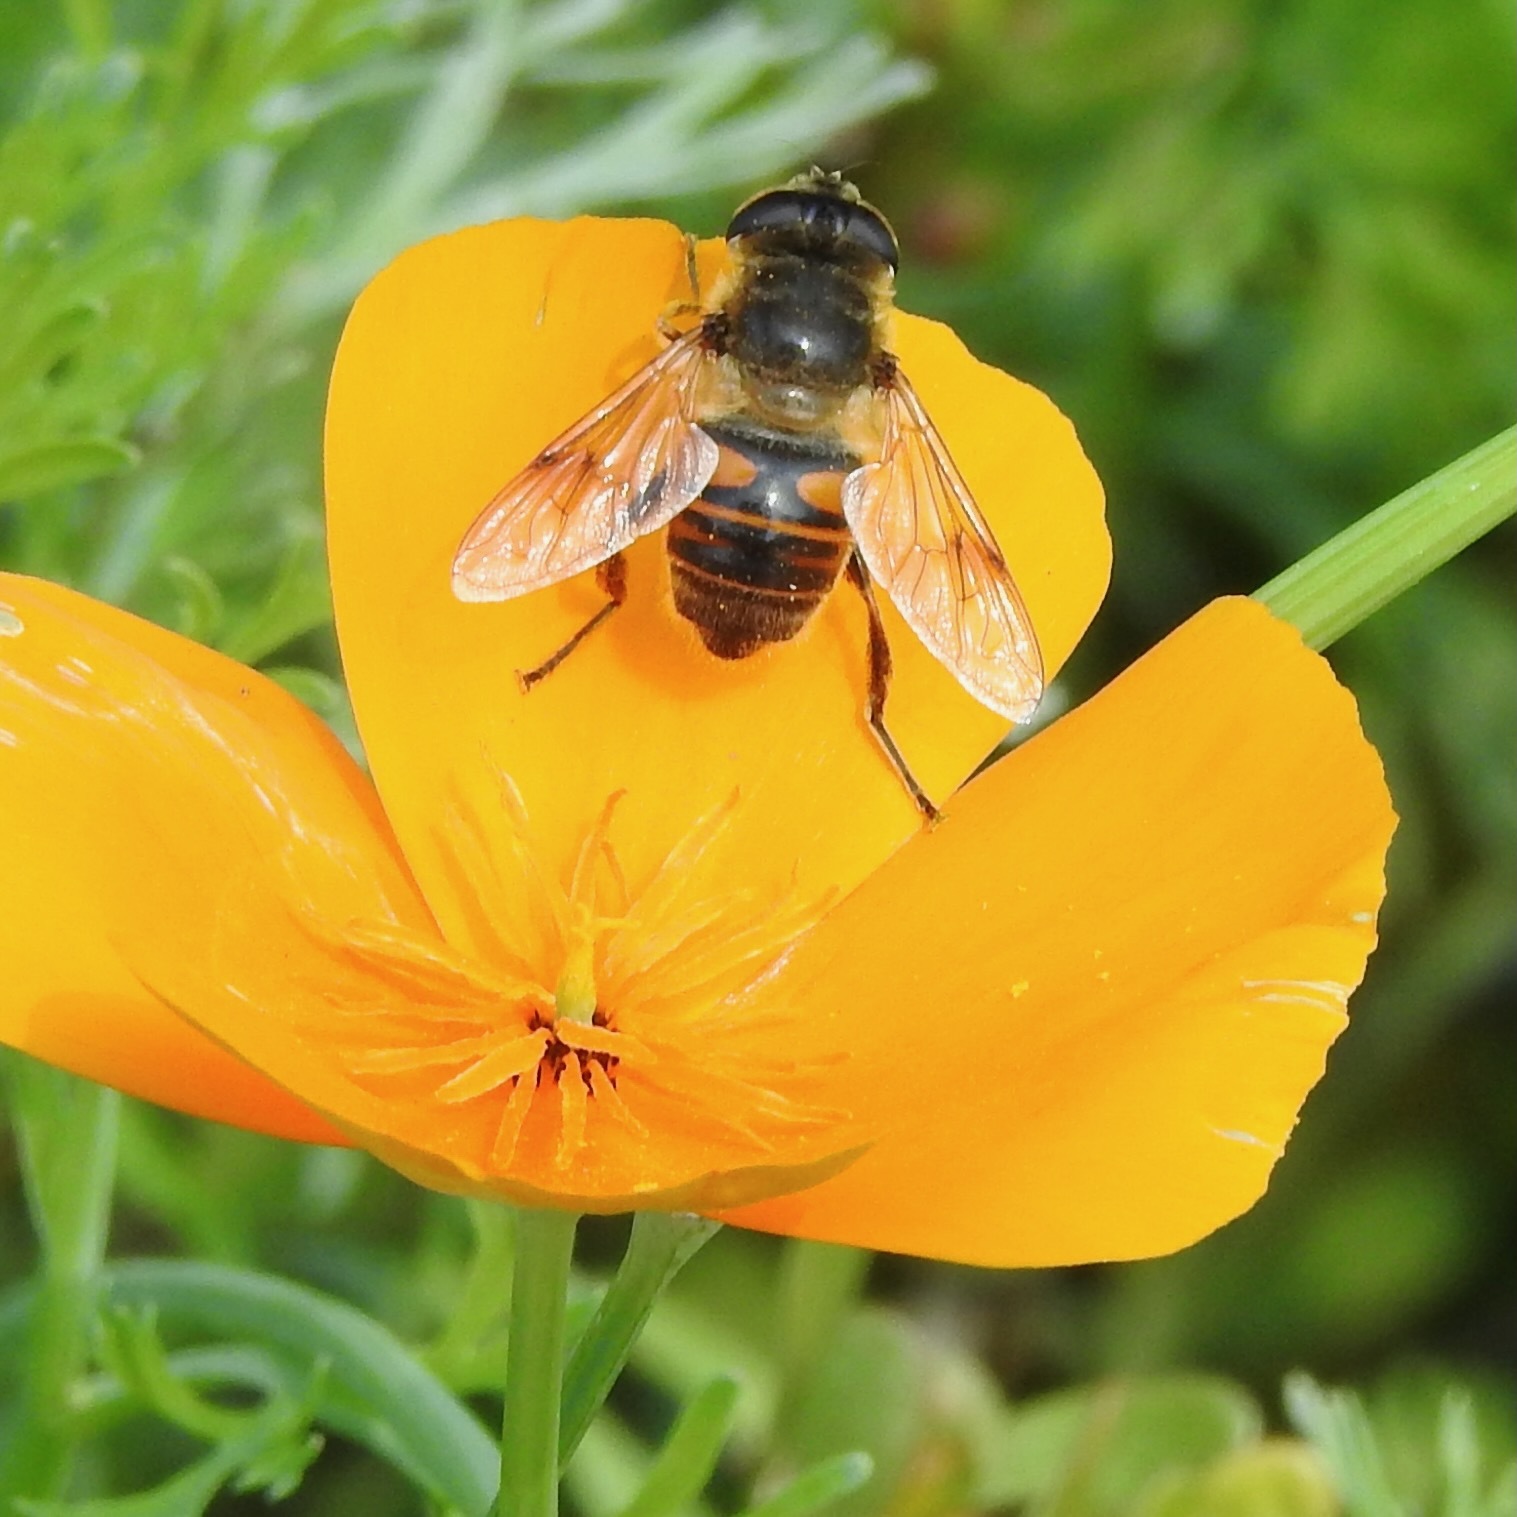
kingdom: Animalia
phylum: Arthropoda
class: Insecta
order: Diptera
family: Syrphidae
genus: Eristalis
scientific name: Eristalis tenax
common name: Drone fly
